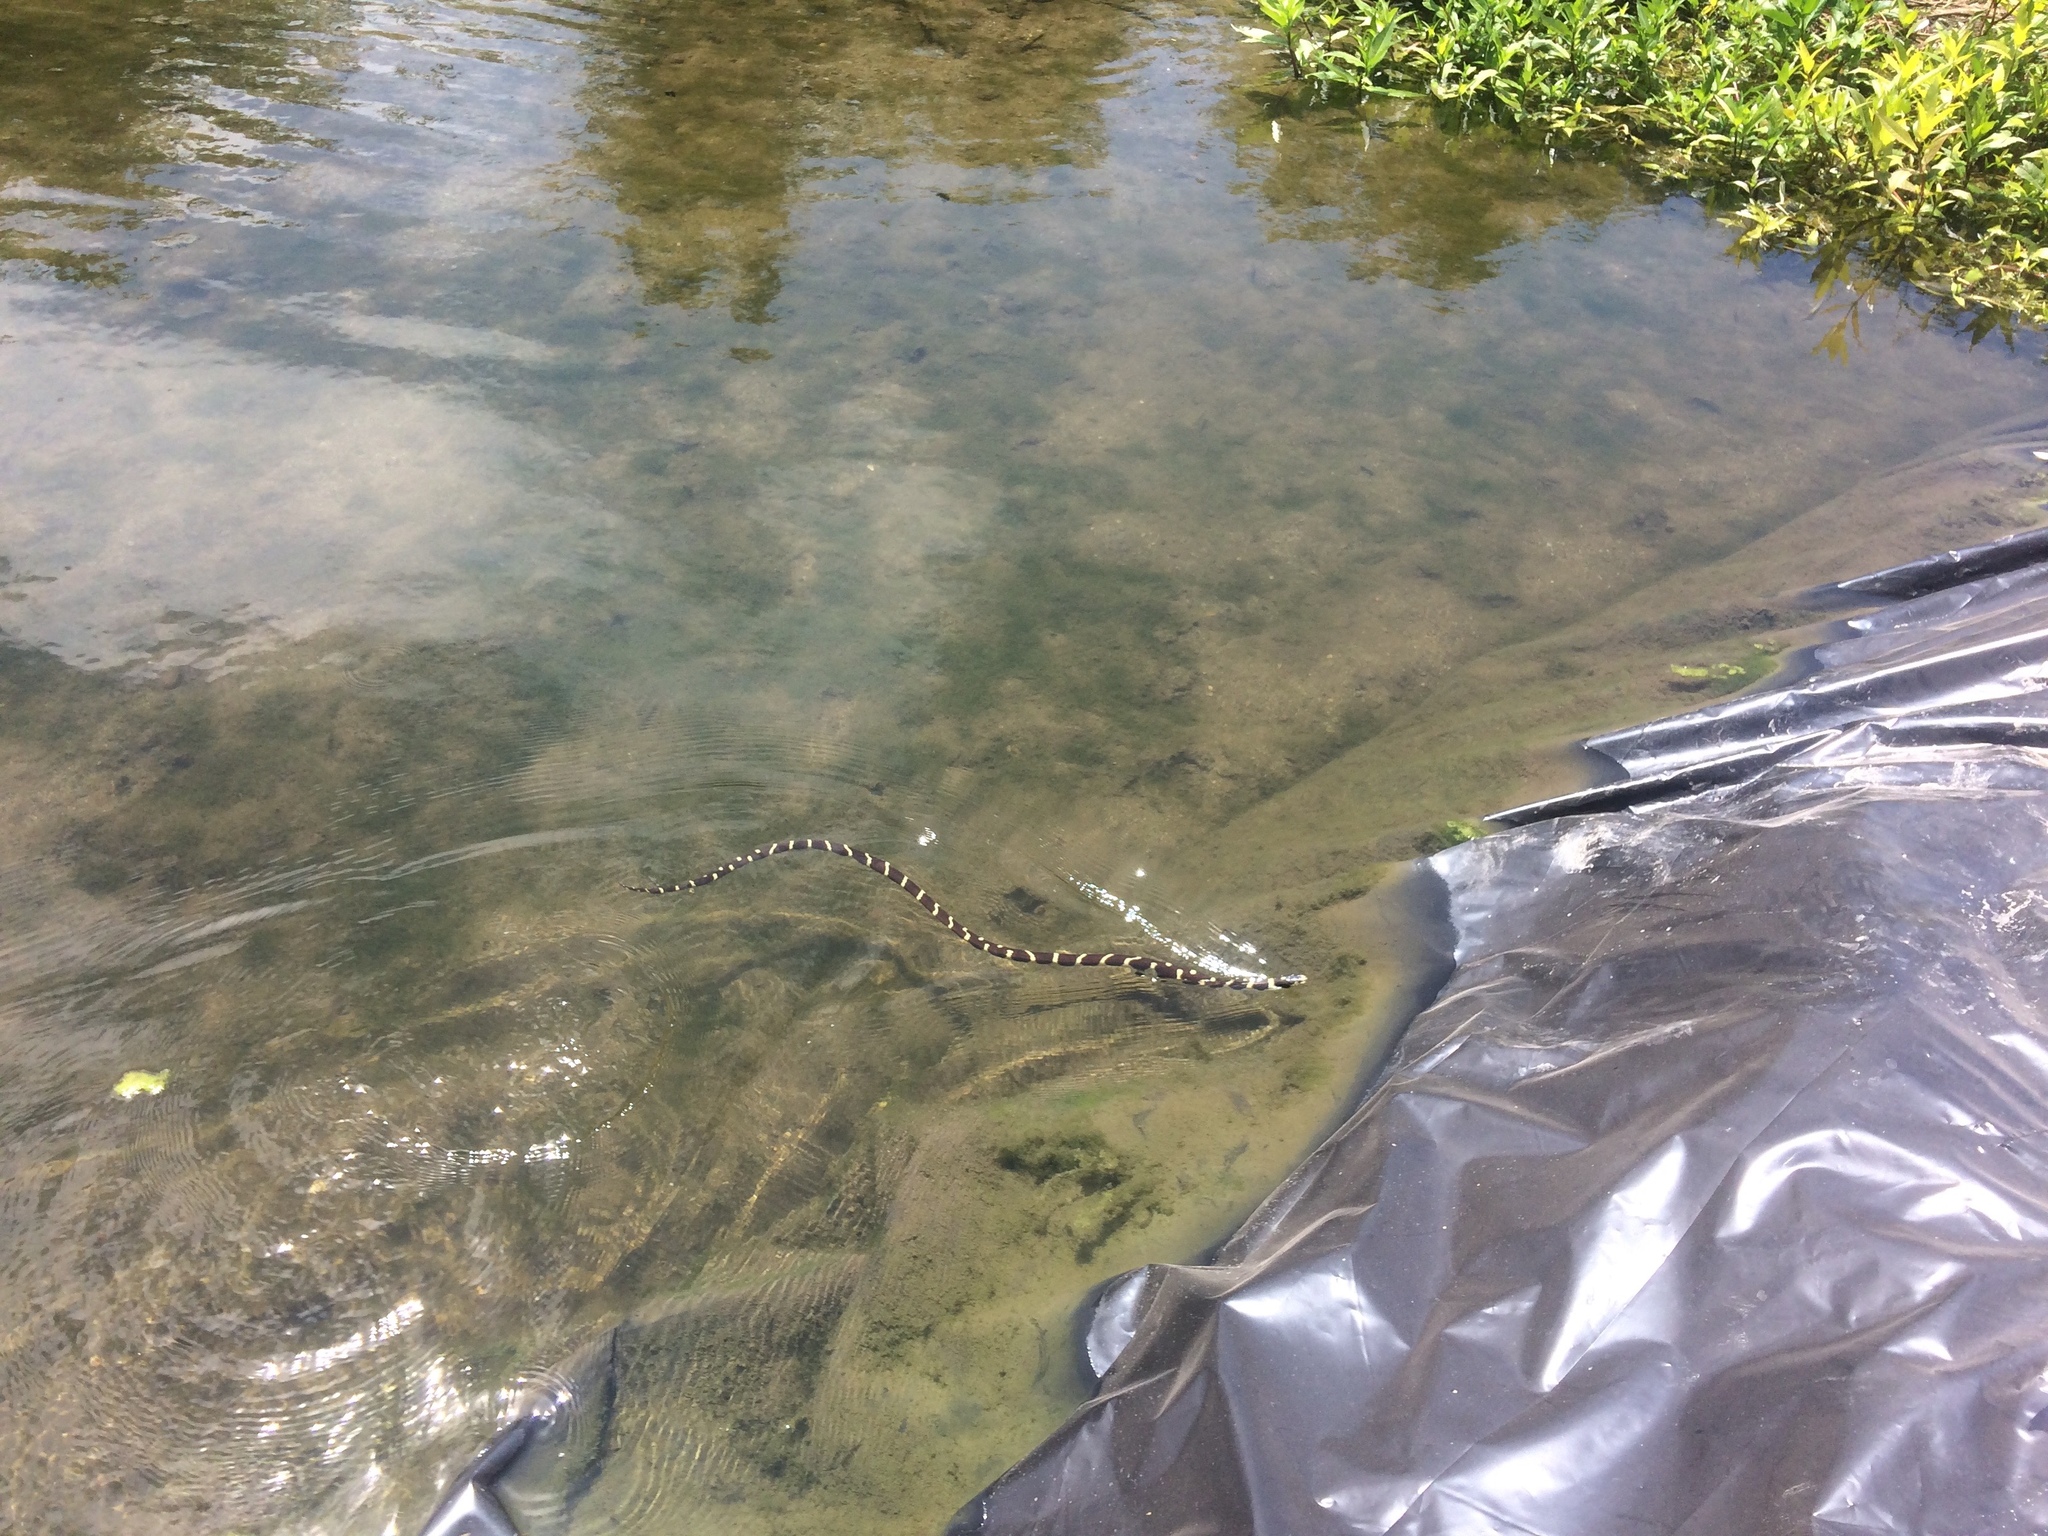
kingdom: Animalia
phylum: Chordata
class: Squamata
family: Colubridae
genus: Lampropeltis
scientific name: Lampropeltis californiae
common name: California kingsnake
